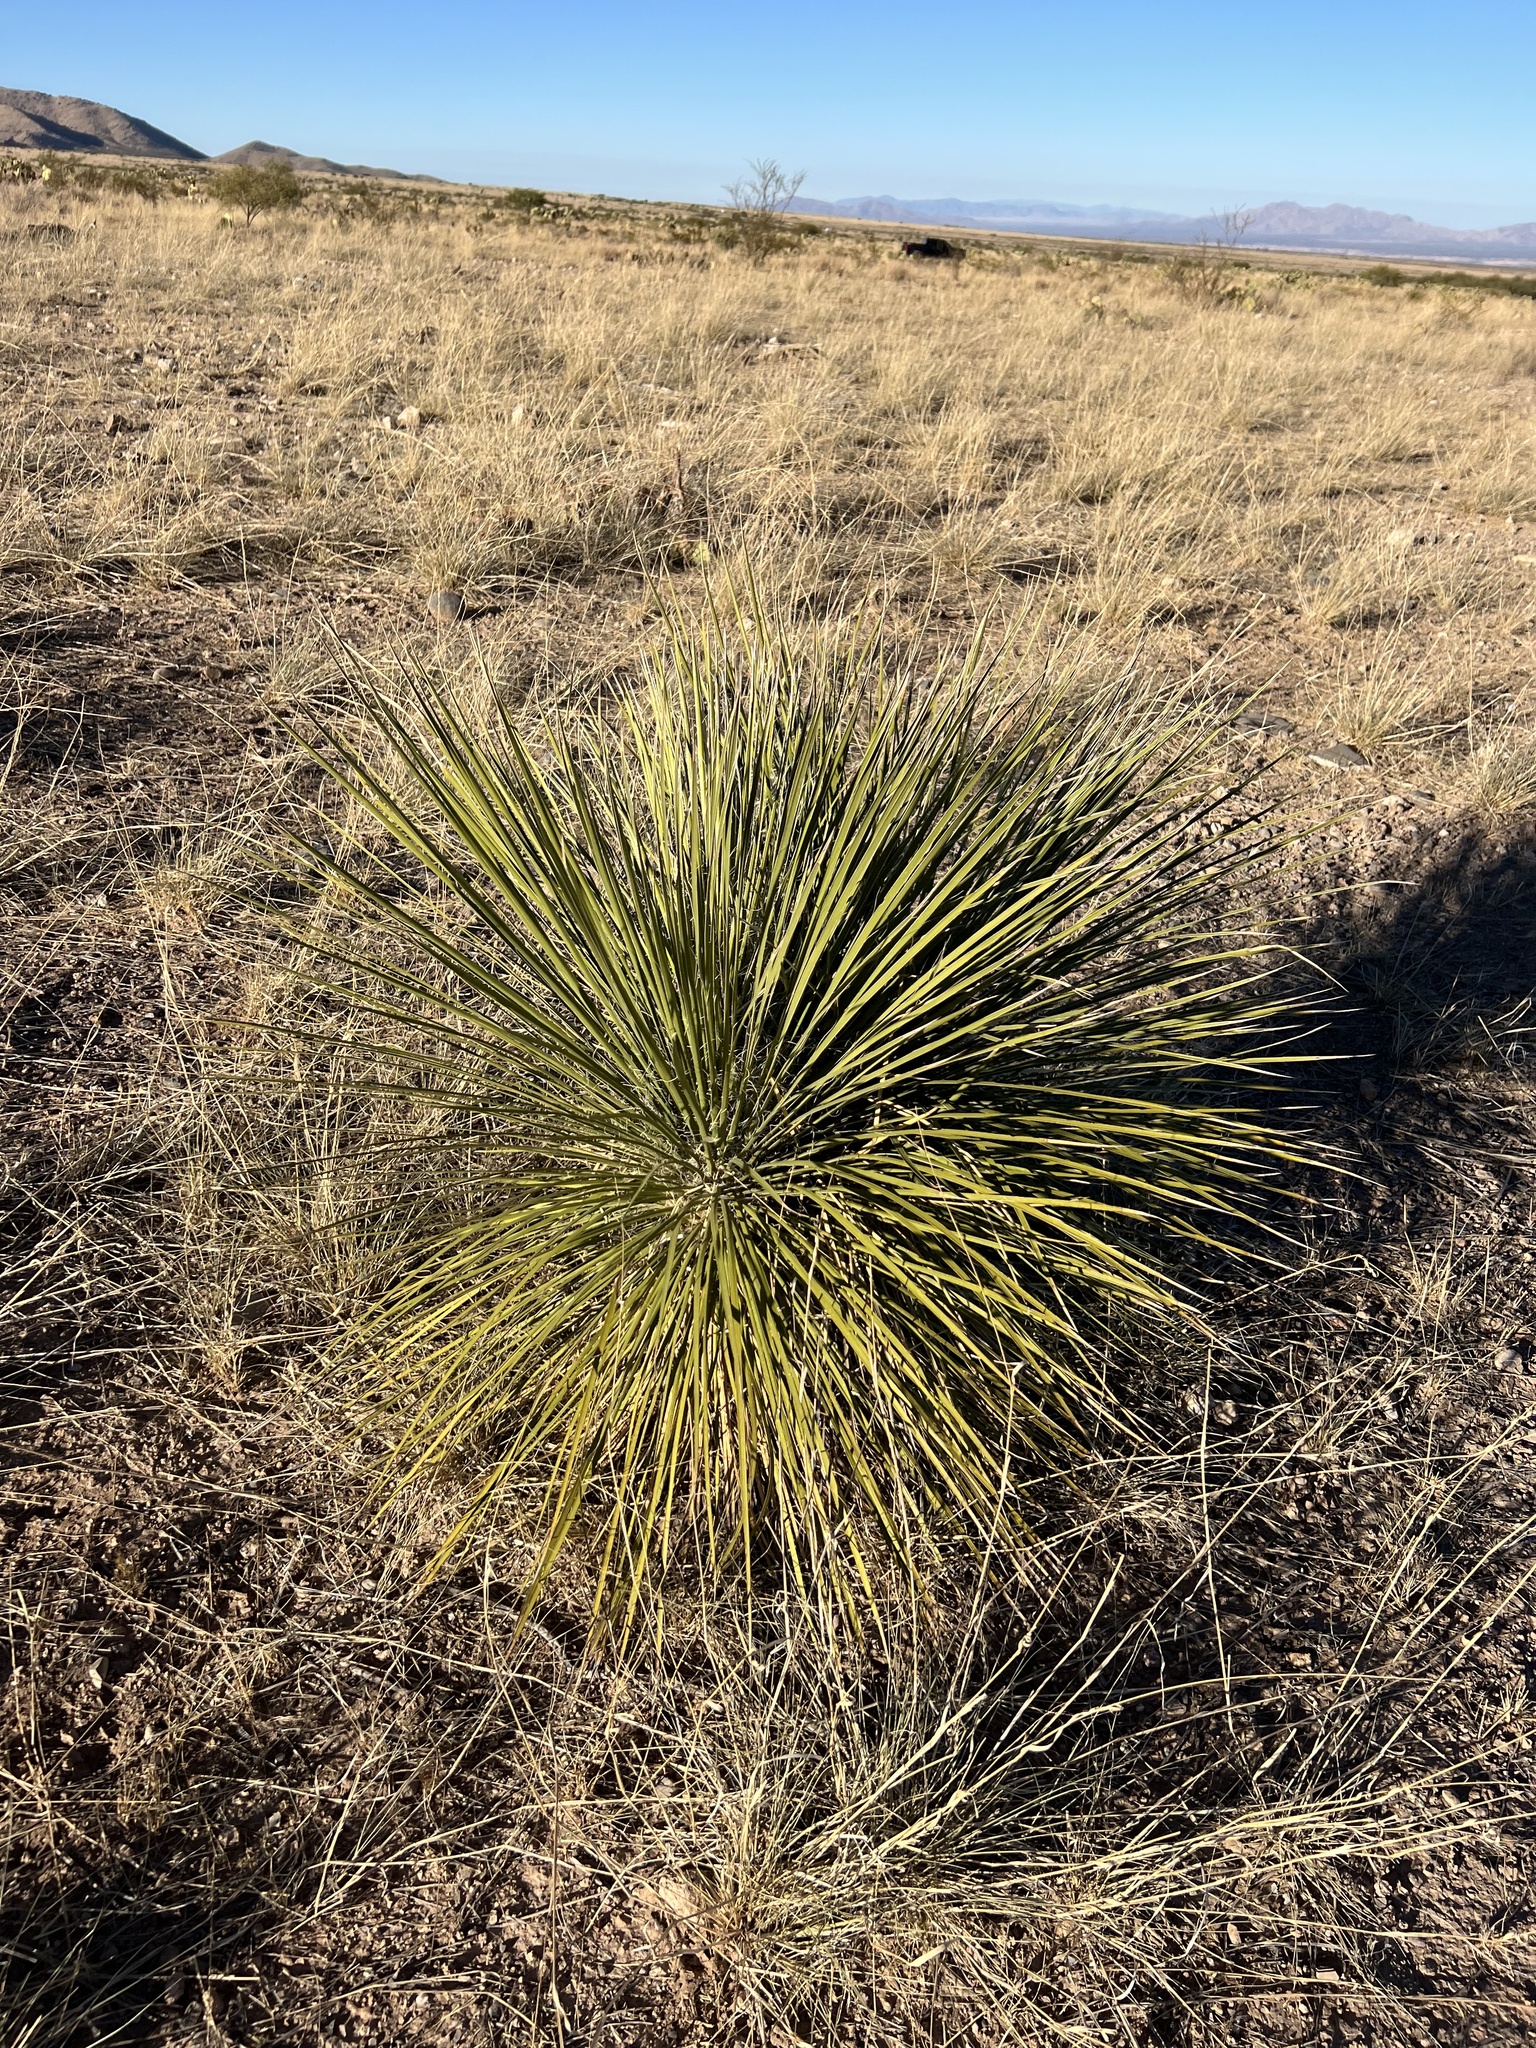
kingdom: Plantae
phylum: Tracheophyta
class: Liliopsida
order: Asparagales
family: Asparagaceae
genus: Yucca
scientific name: Yucca elata
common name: Palmella
